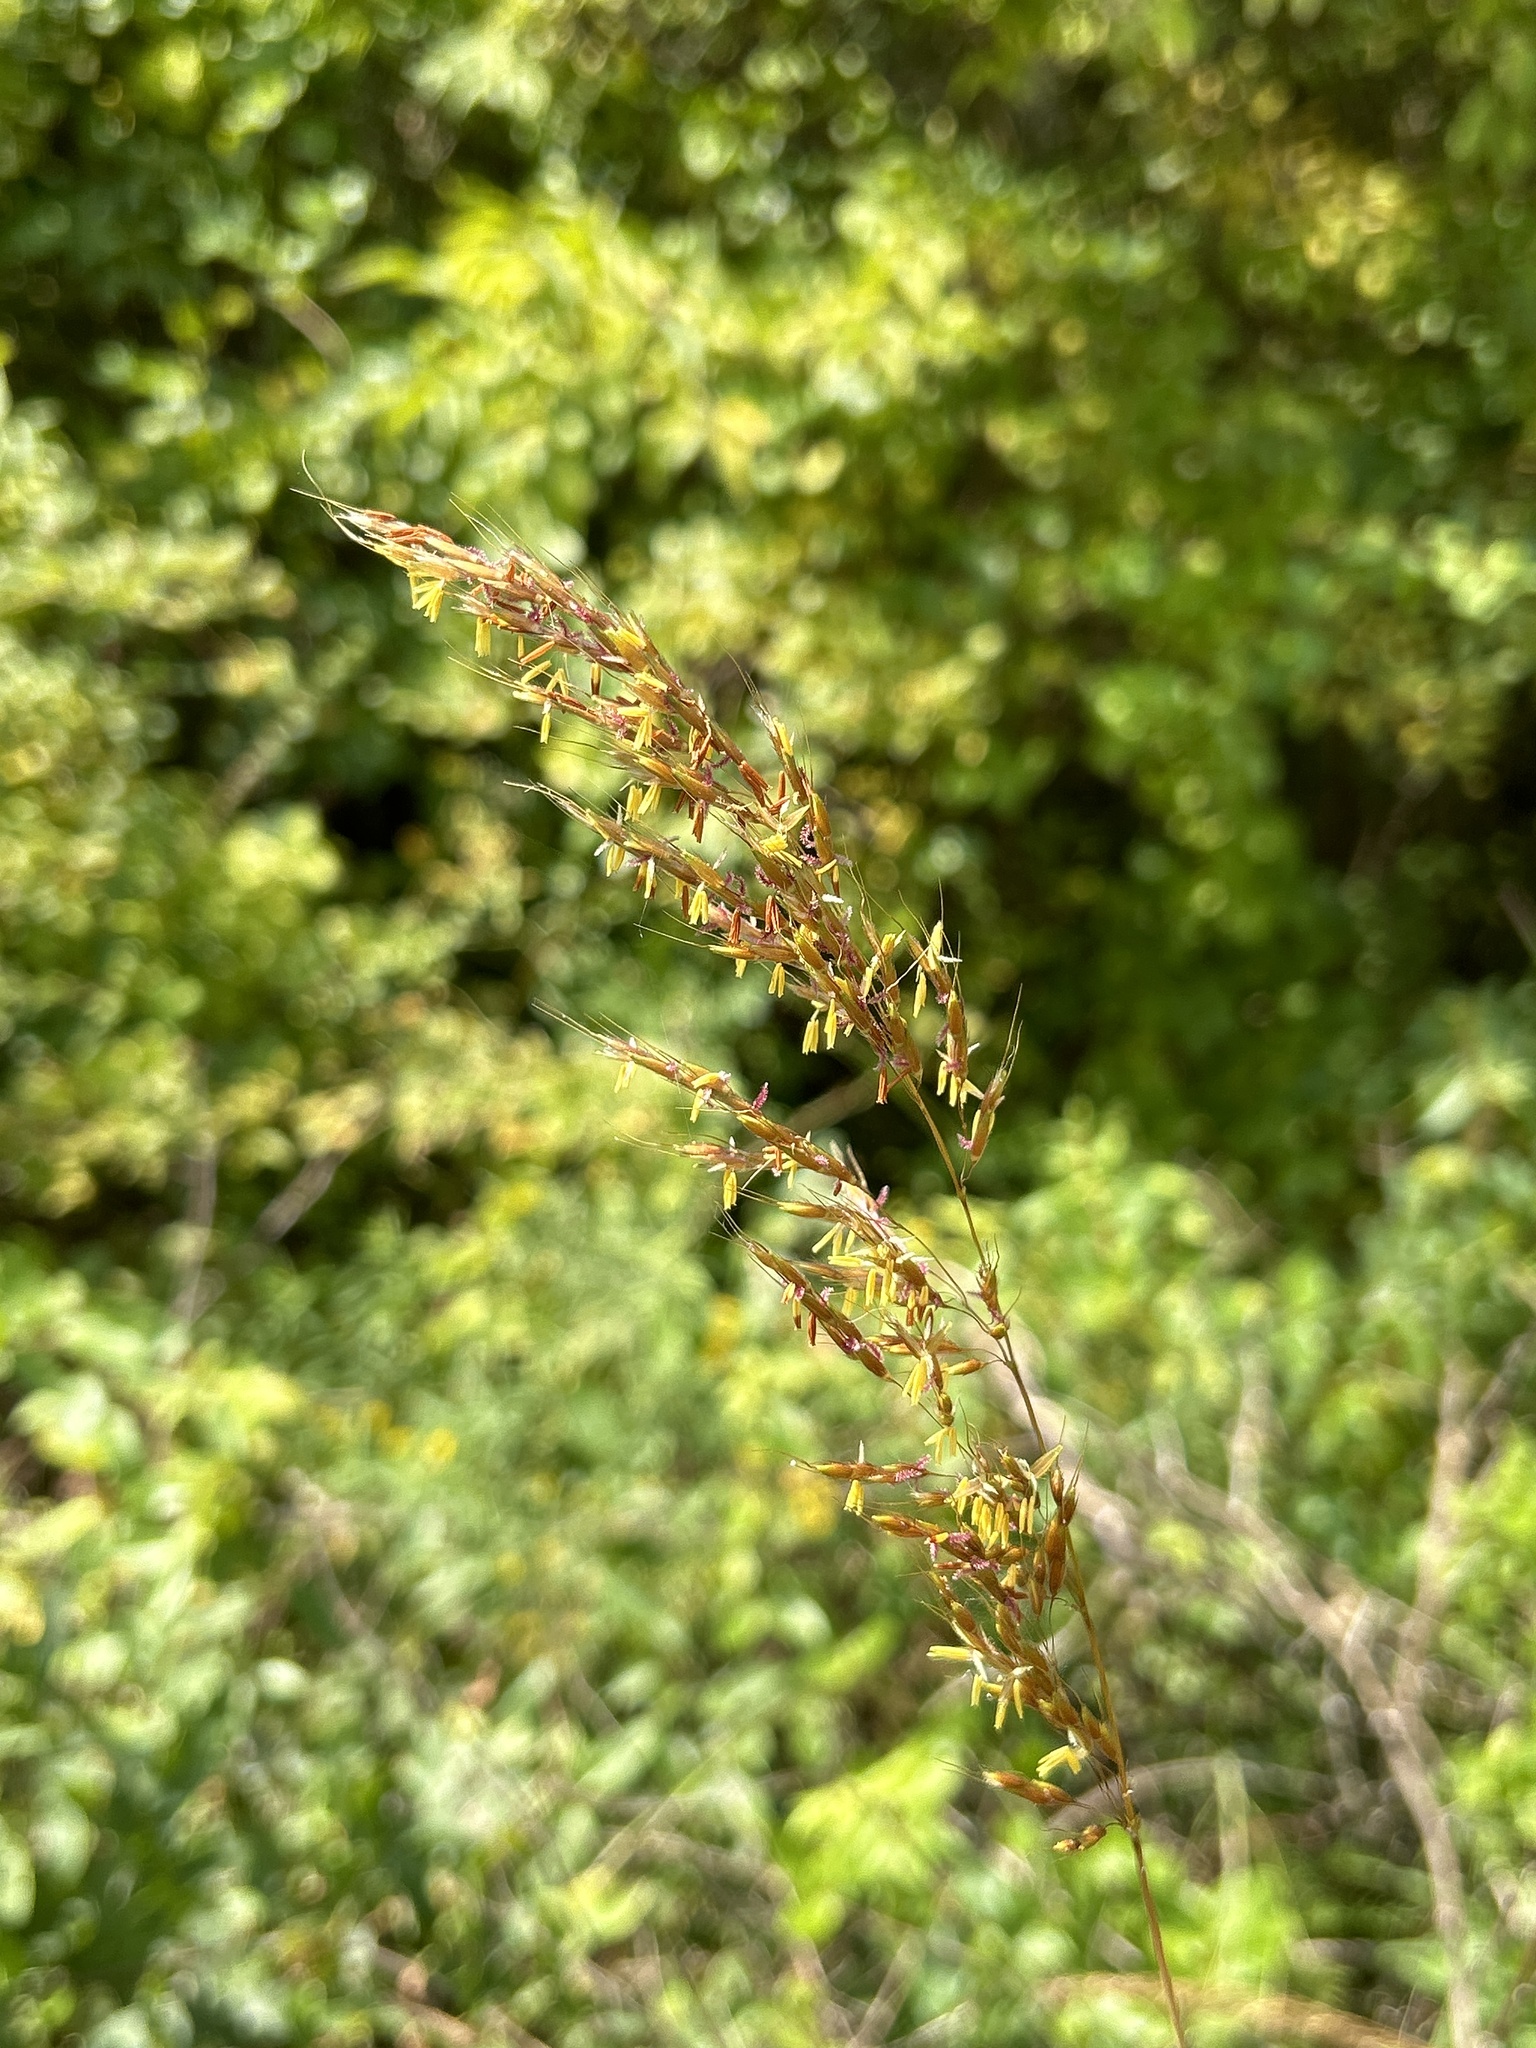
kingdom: Plantae
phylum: Tracheophyta
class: Liliopsida
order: Poales
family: Poaceae
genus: Sorghastrum
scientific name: Sorghastrum nutans
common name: Indian grass
